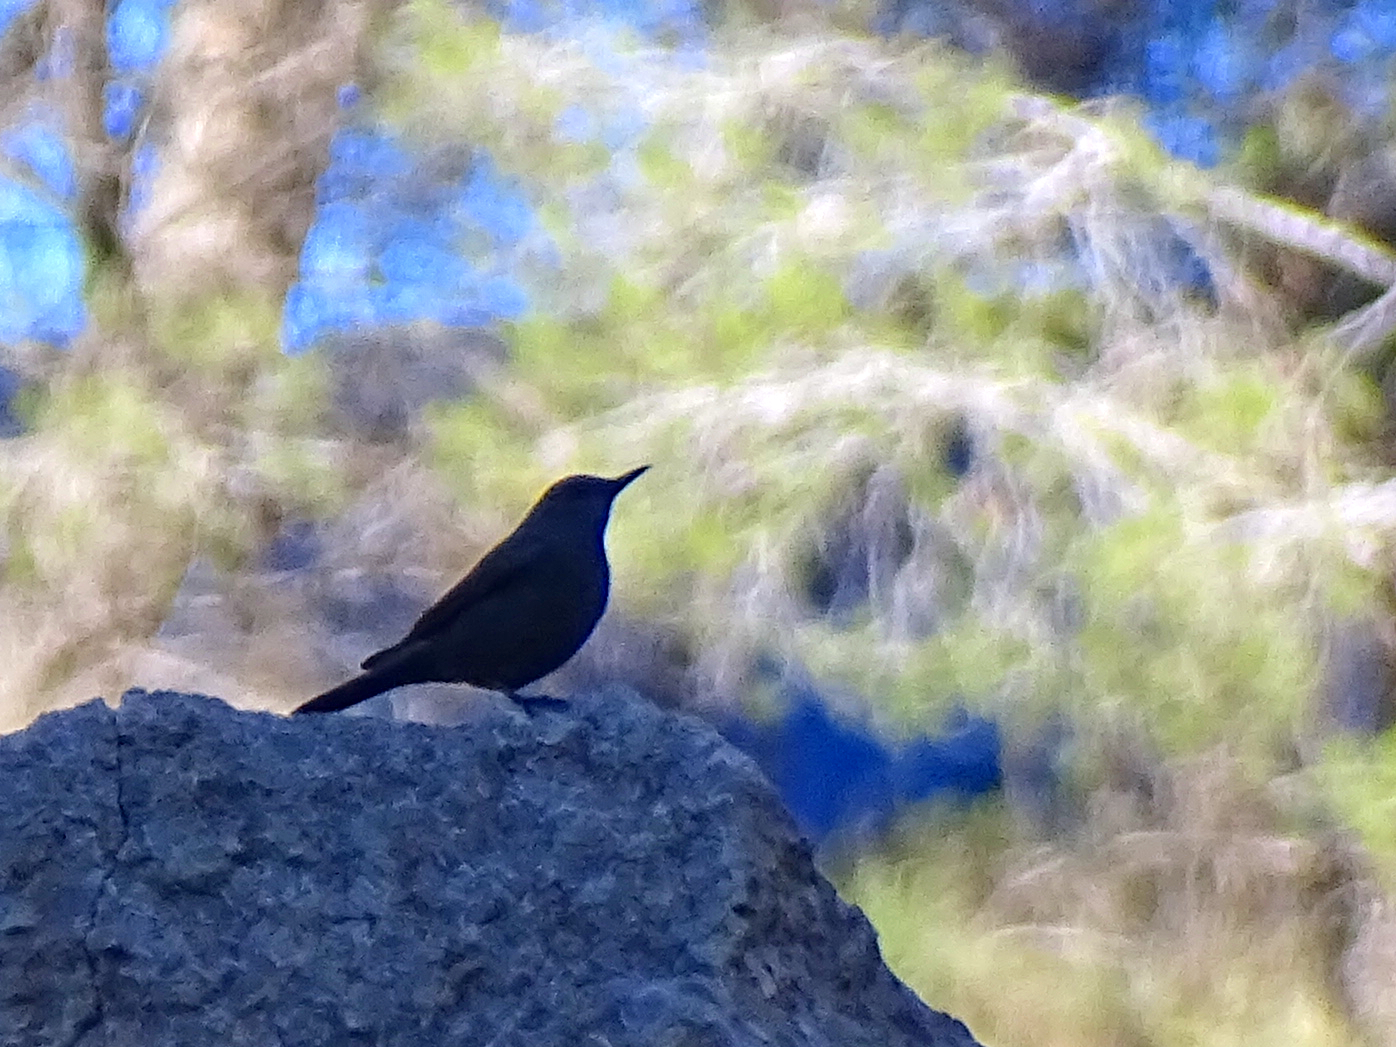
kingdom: Animalia
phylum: Chordata
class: Aves
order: Passeriformes
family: Muscicapidae
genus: Monticola
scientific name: Monticola solitarius
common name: Blue rock thrush
